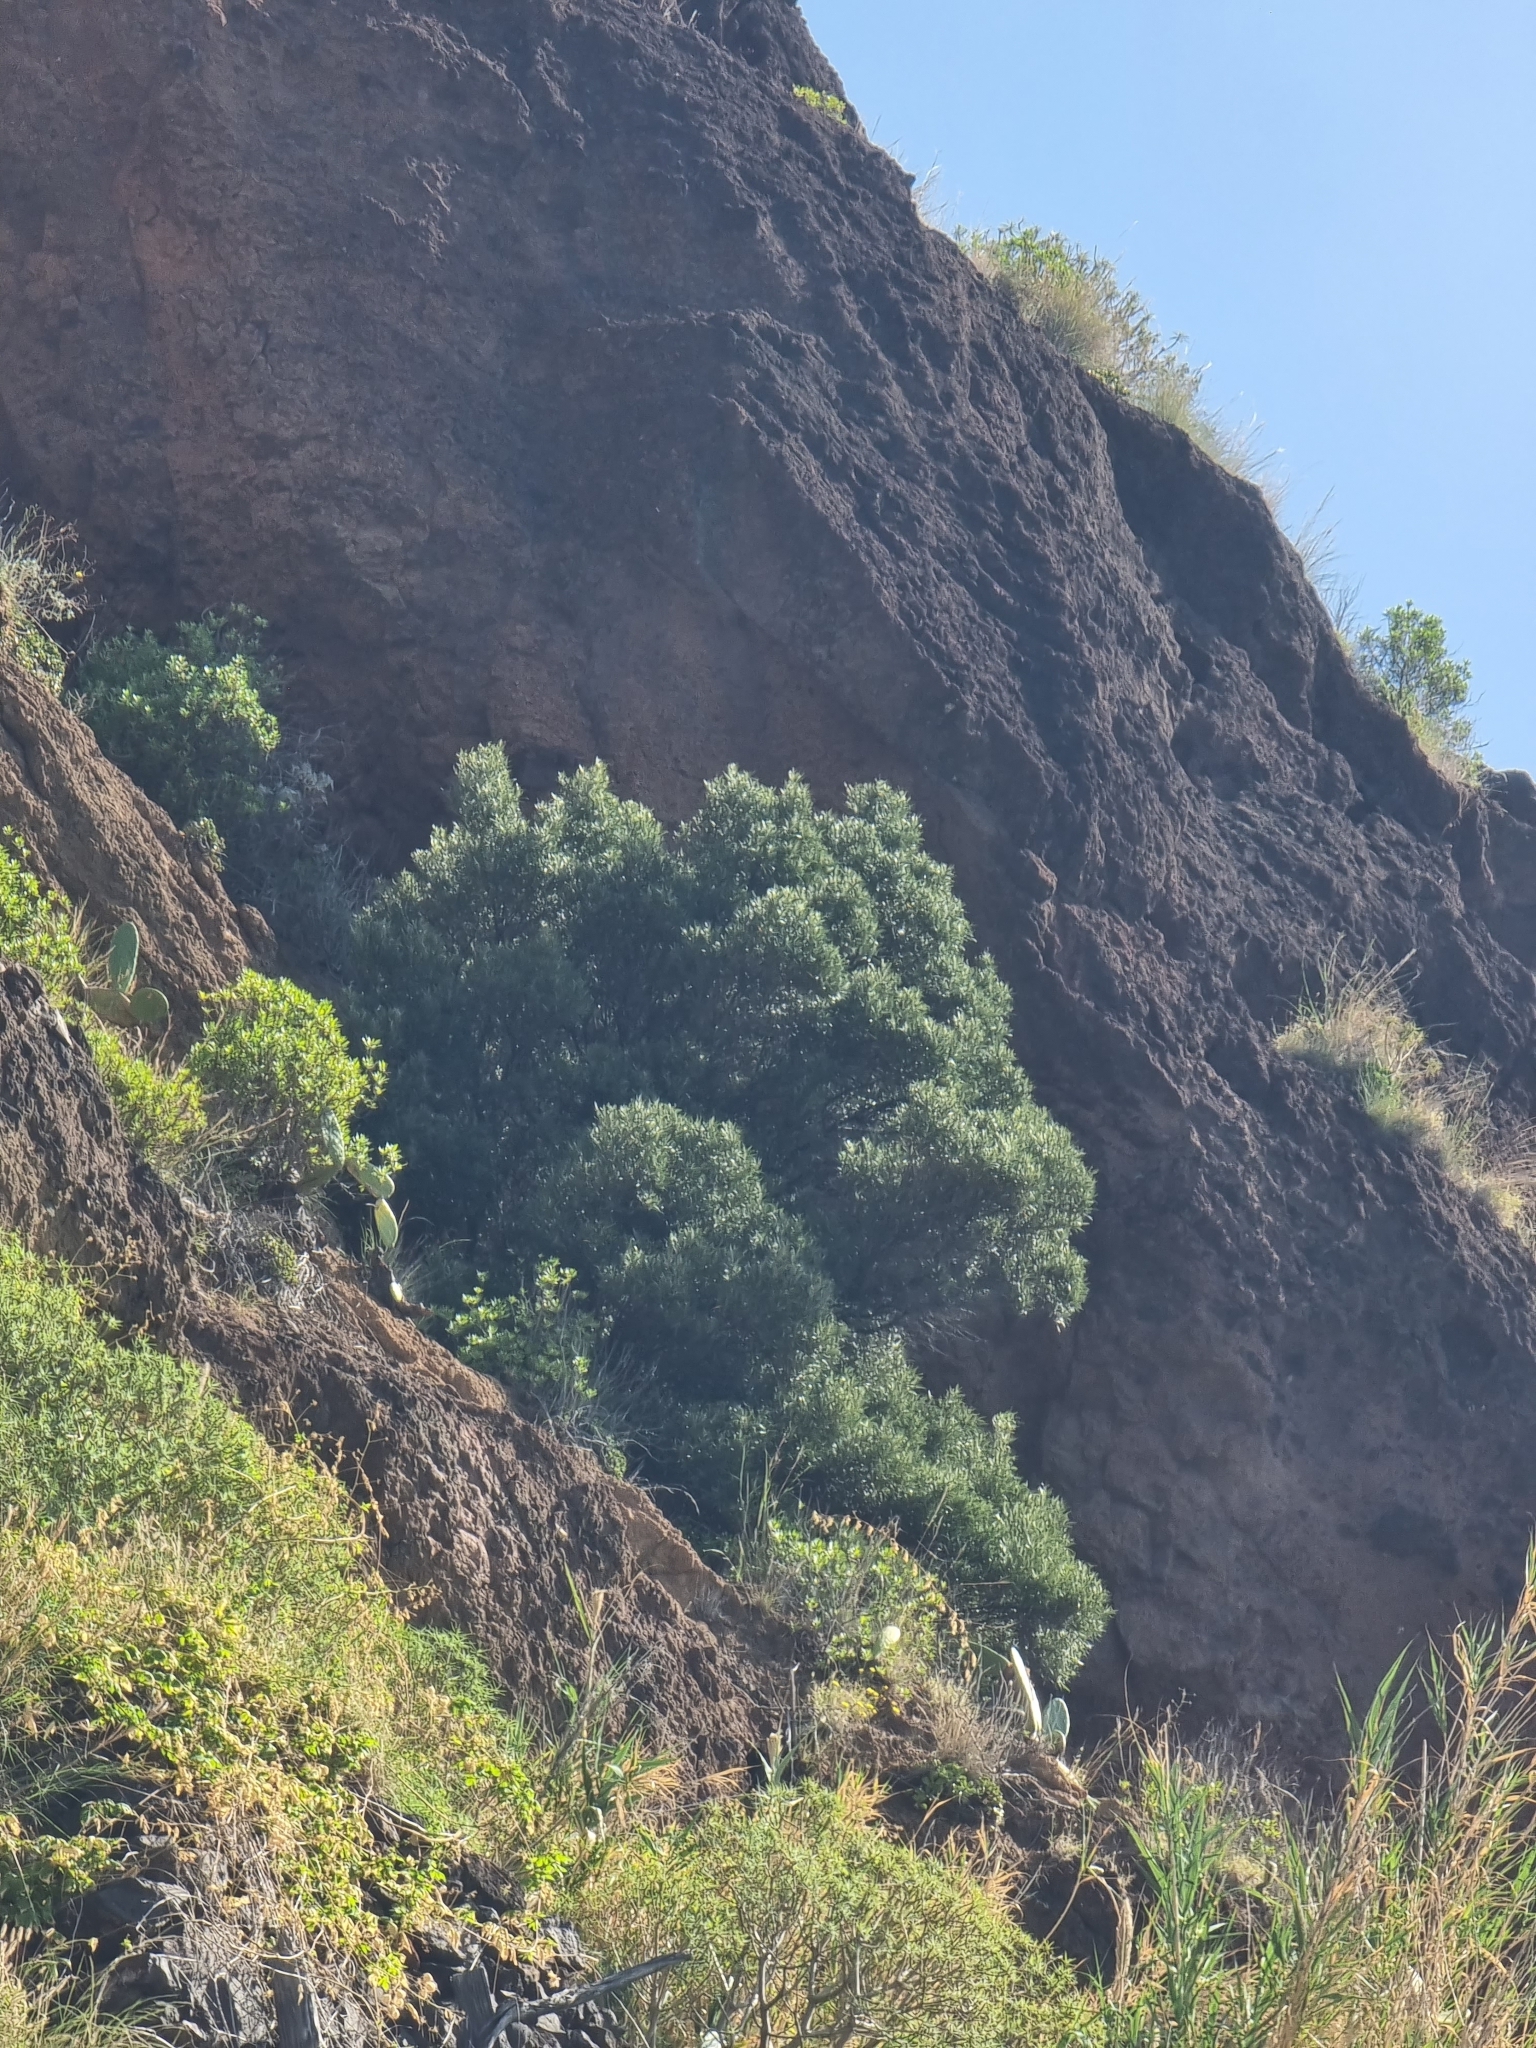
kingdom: Plantae
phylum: Tracheophyta
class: Magnoliopsida
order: Lamiales
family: Oleaceae
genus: Olea
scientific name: Olea europaea
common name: Olive
